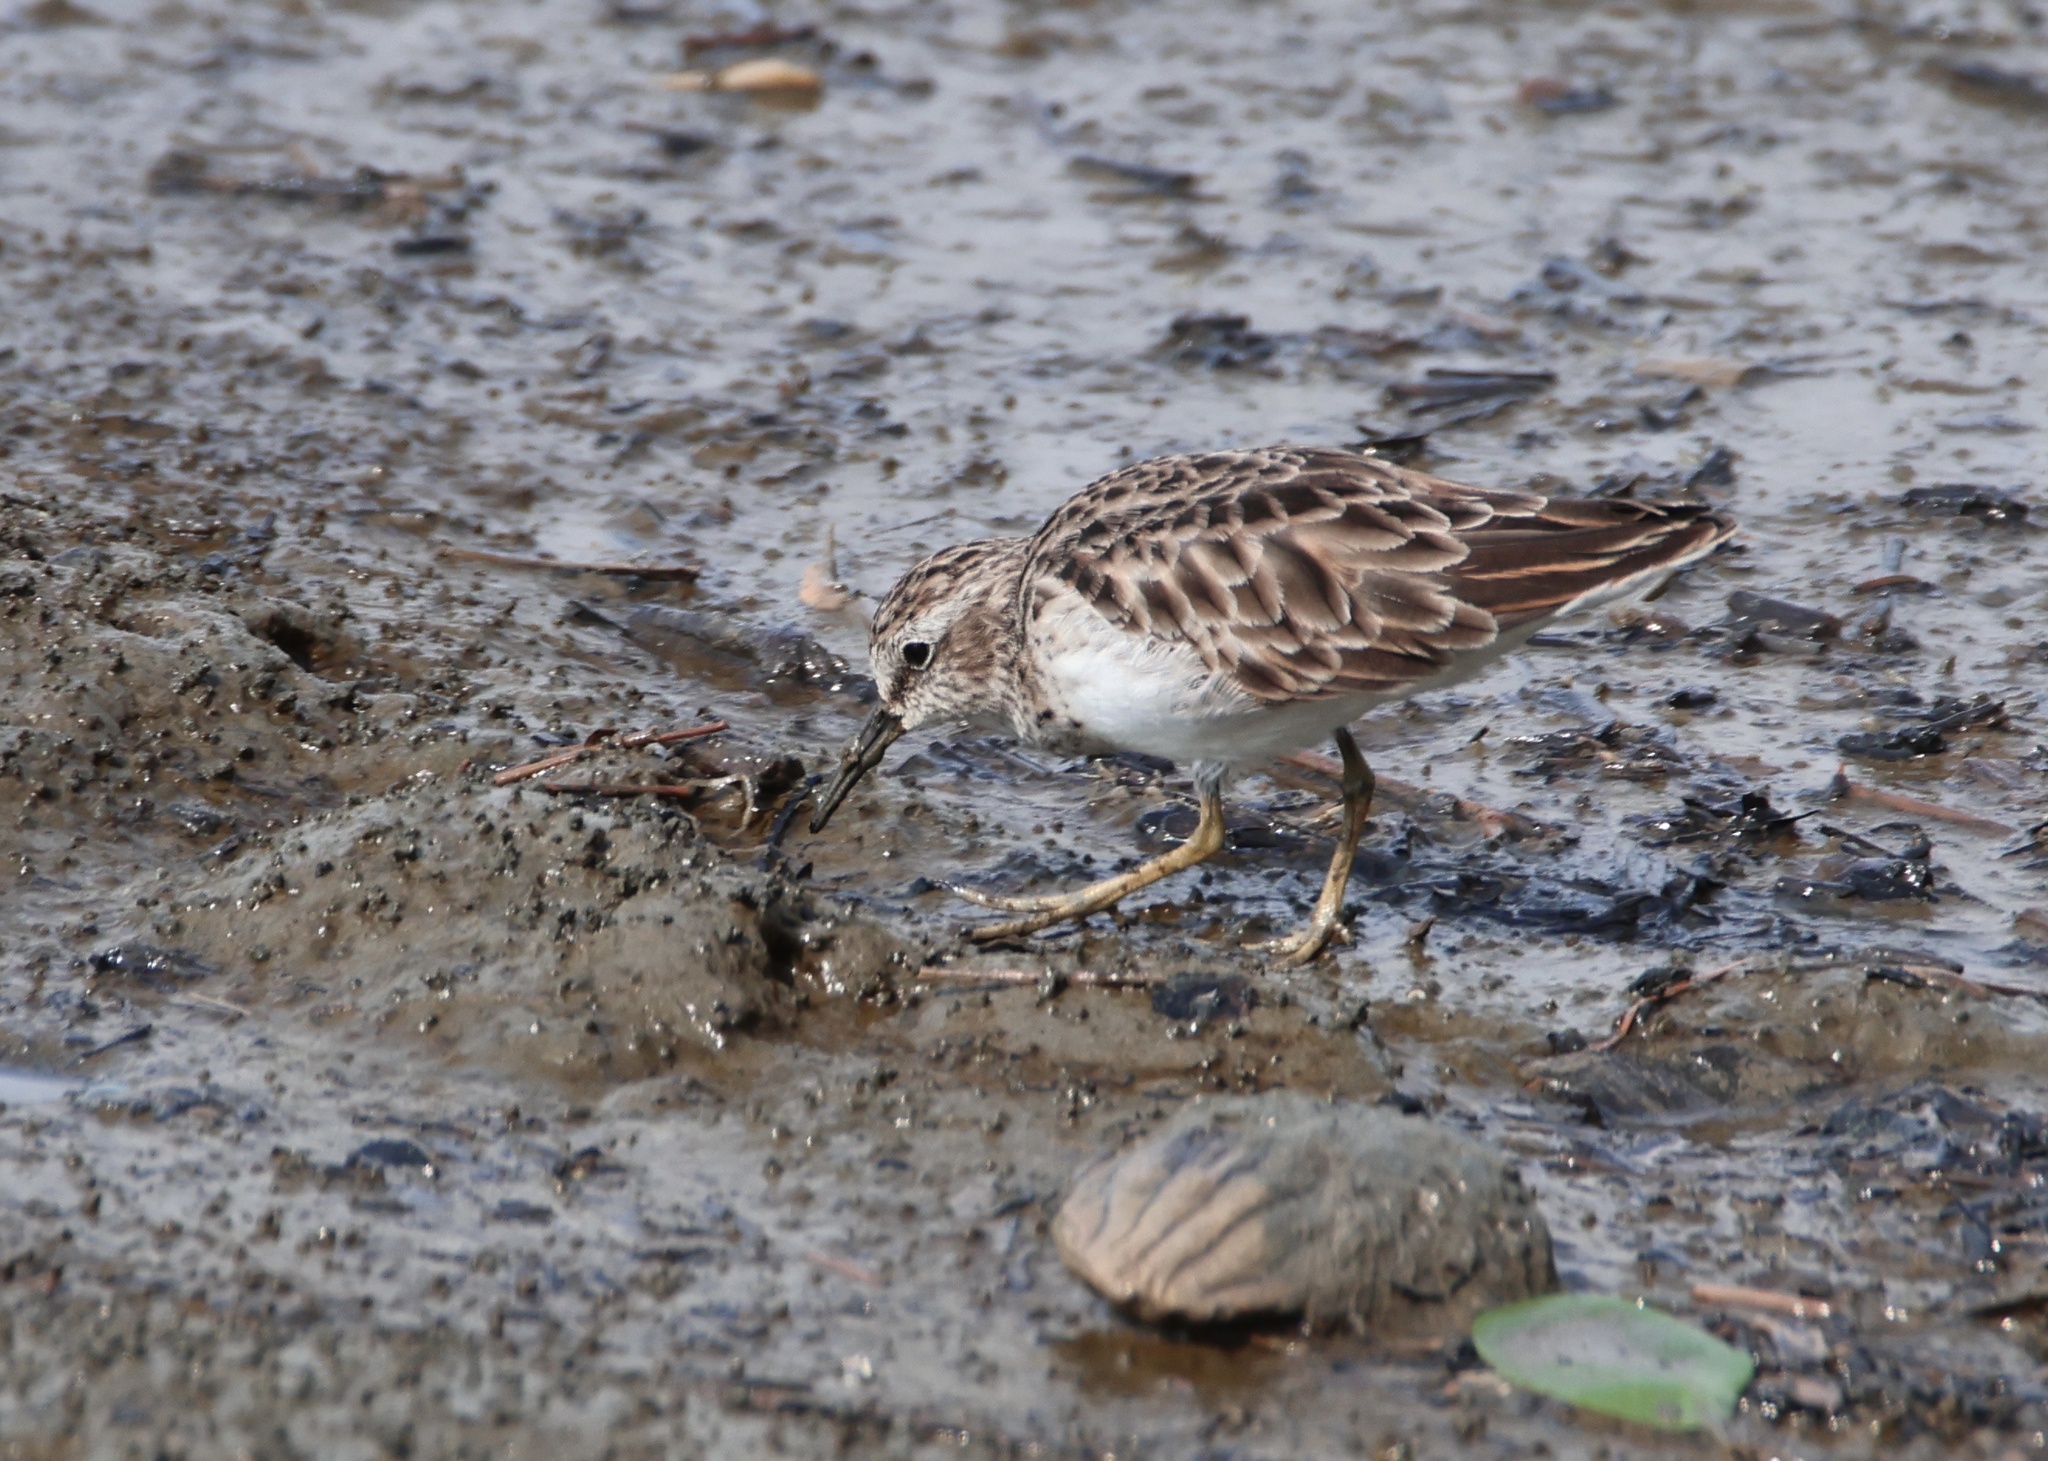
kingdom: Animalia
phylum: Chordata
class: Aves
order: Charadriiformes
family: Scolopacidae
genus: Calidris
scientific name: Calidris minutilla
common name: Least sandpiper
